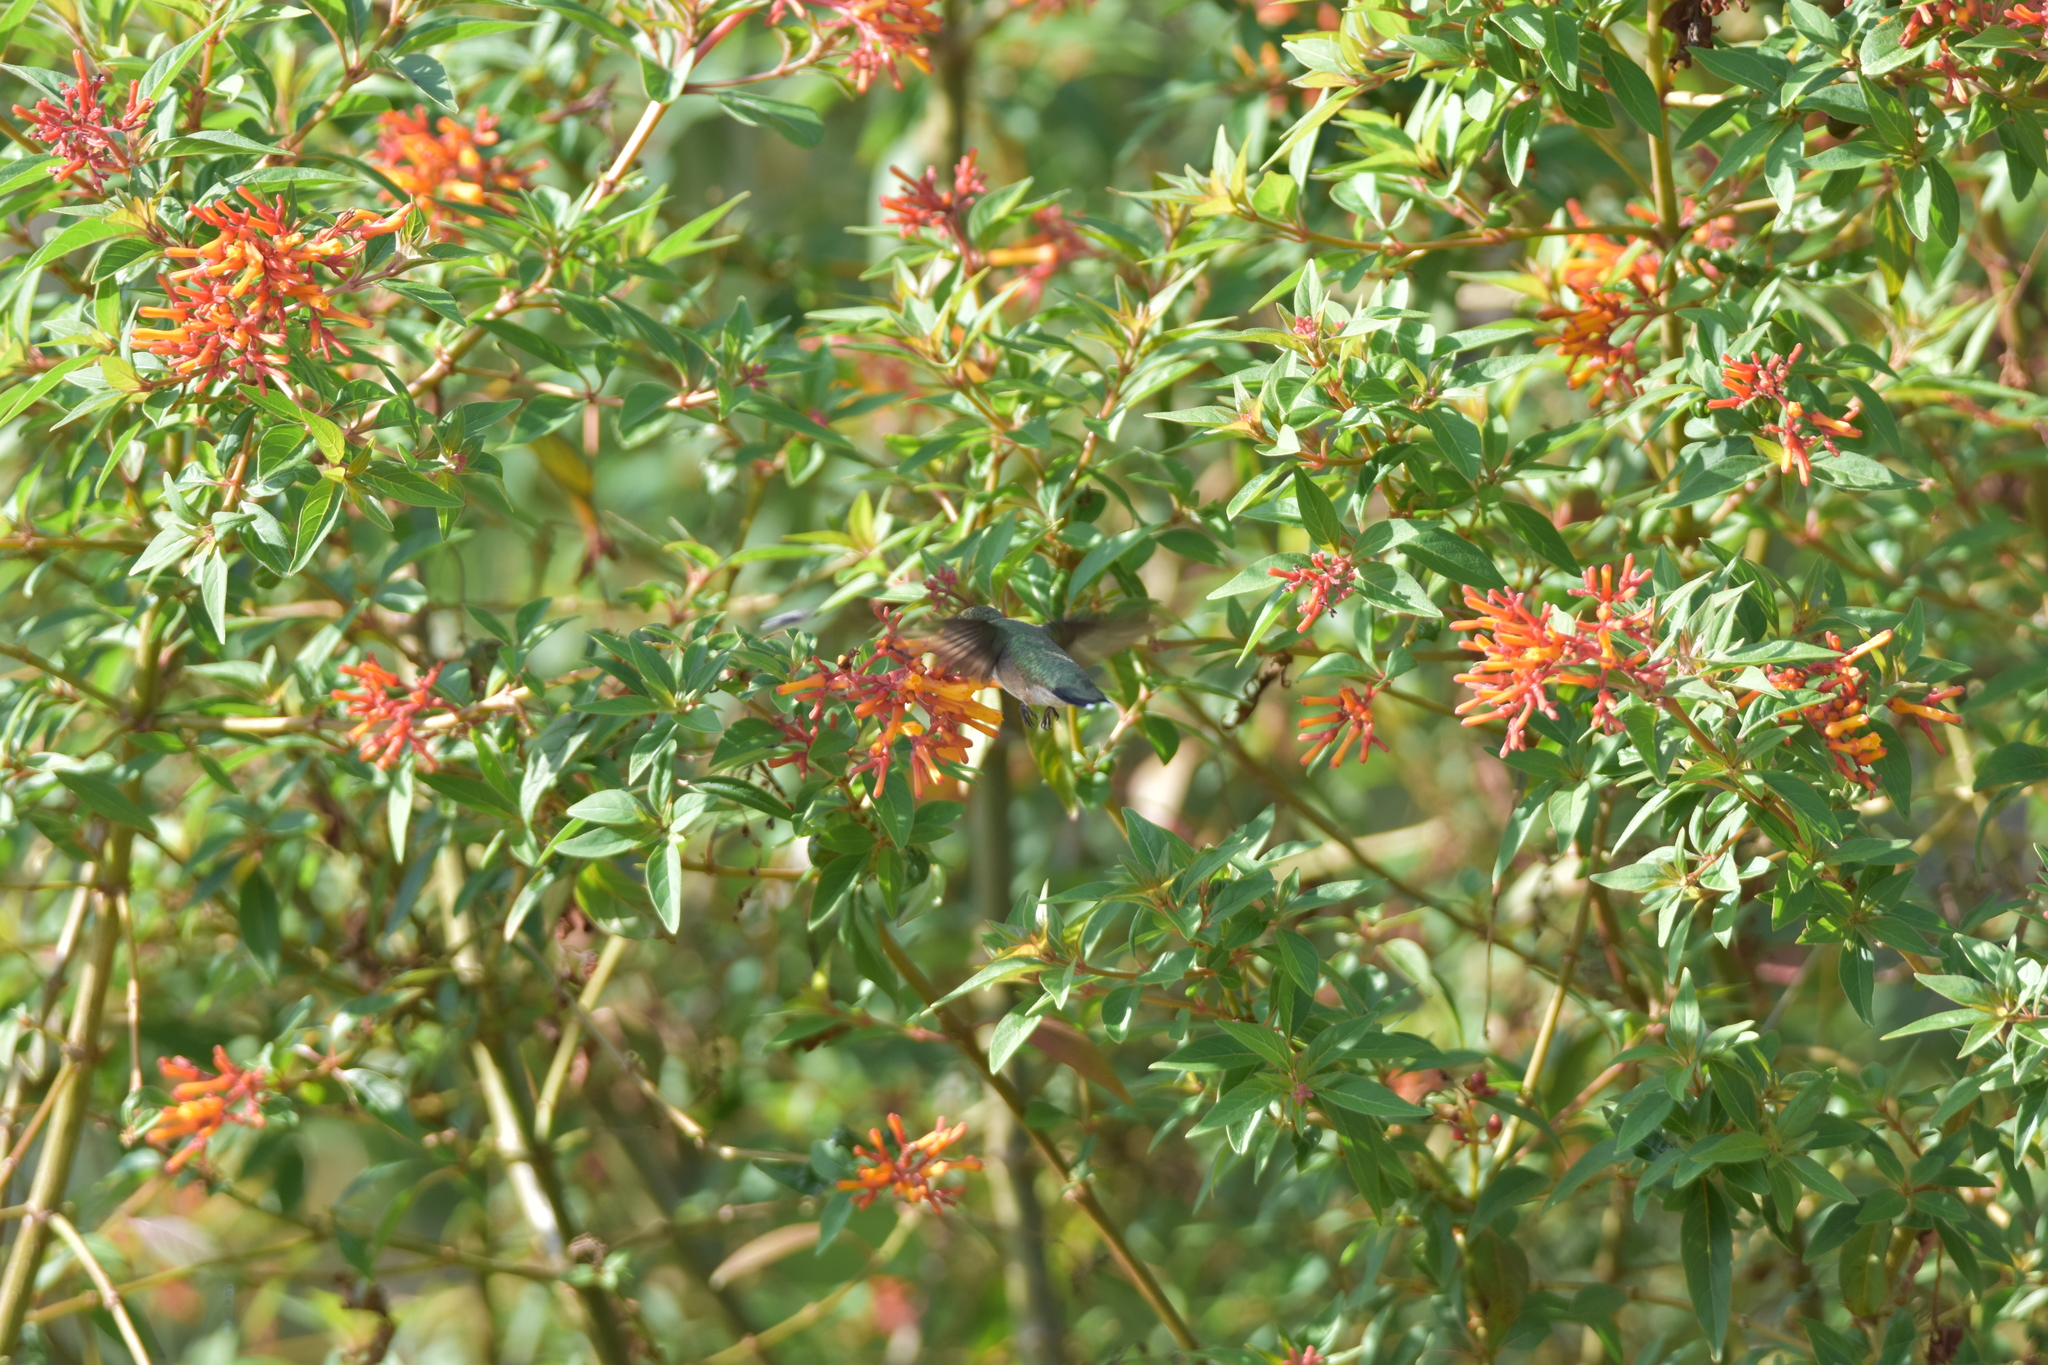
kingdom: Animalia
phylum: Chordata
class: Aves
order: Apodiformes
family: Trochilidae
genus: Archilochus
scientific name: Archilochus colubris
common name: Ruby-throated hummingbird
